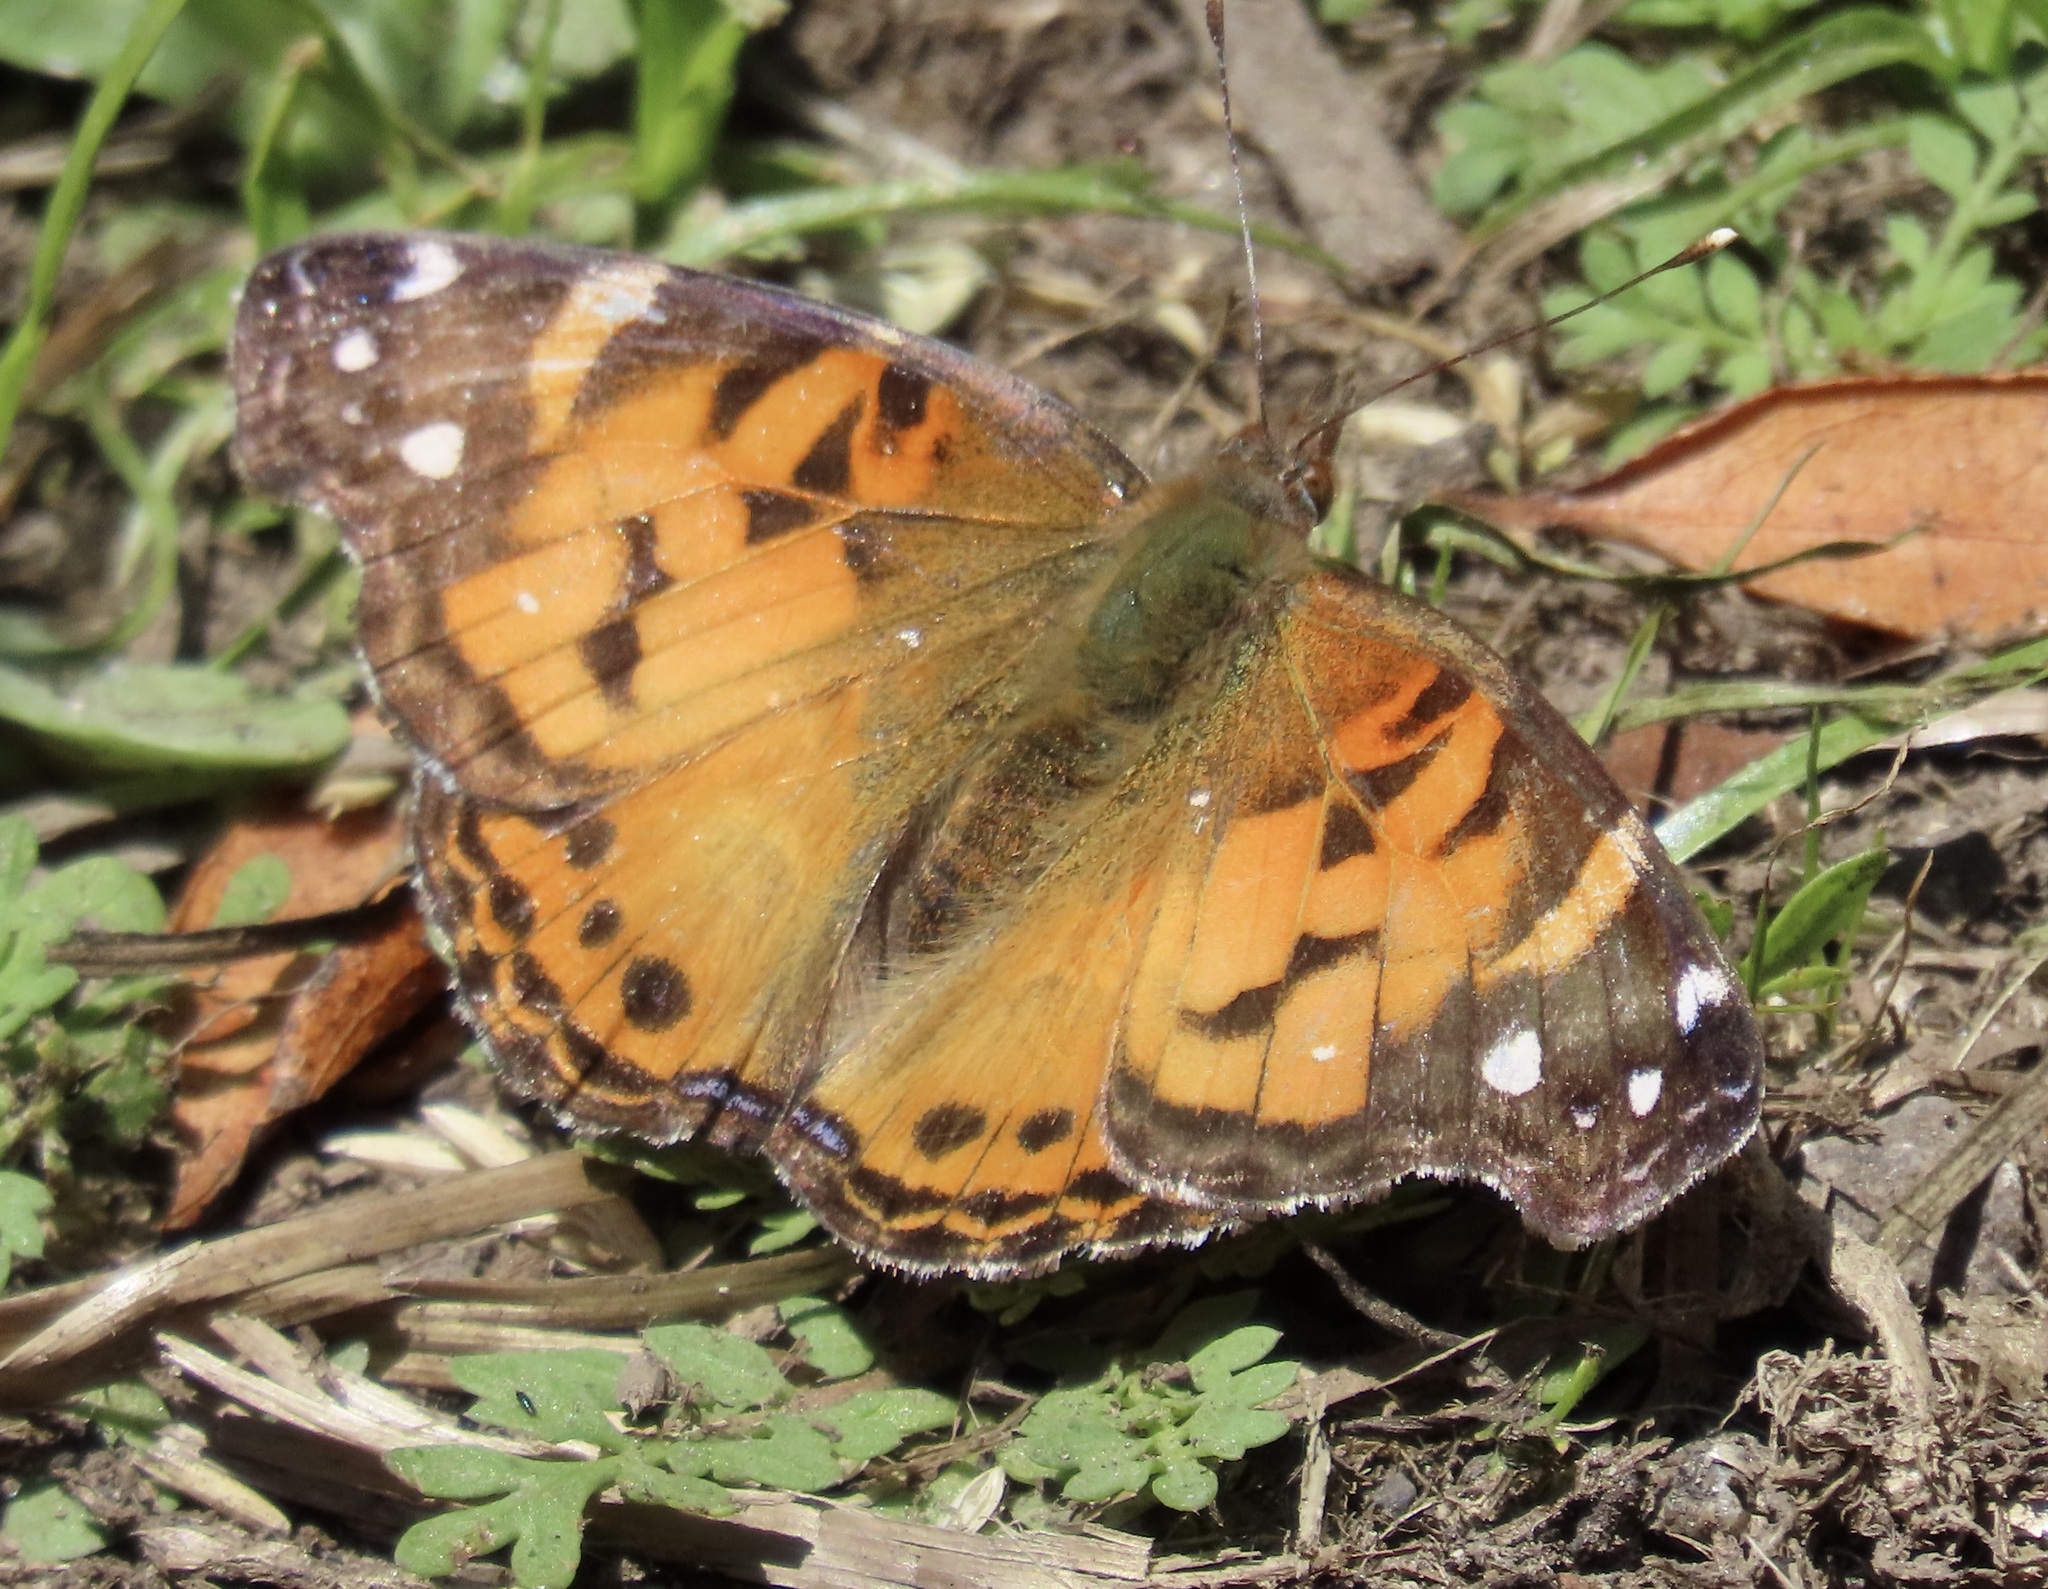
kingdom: Animalia
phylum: Arthropoda
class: Insecta
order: Lepidoptera
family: Nymphalidae
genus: Vanessa
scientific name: Vanessa virginiensis
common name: American lady
